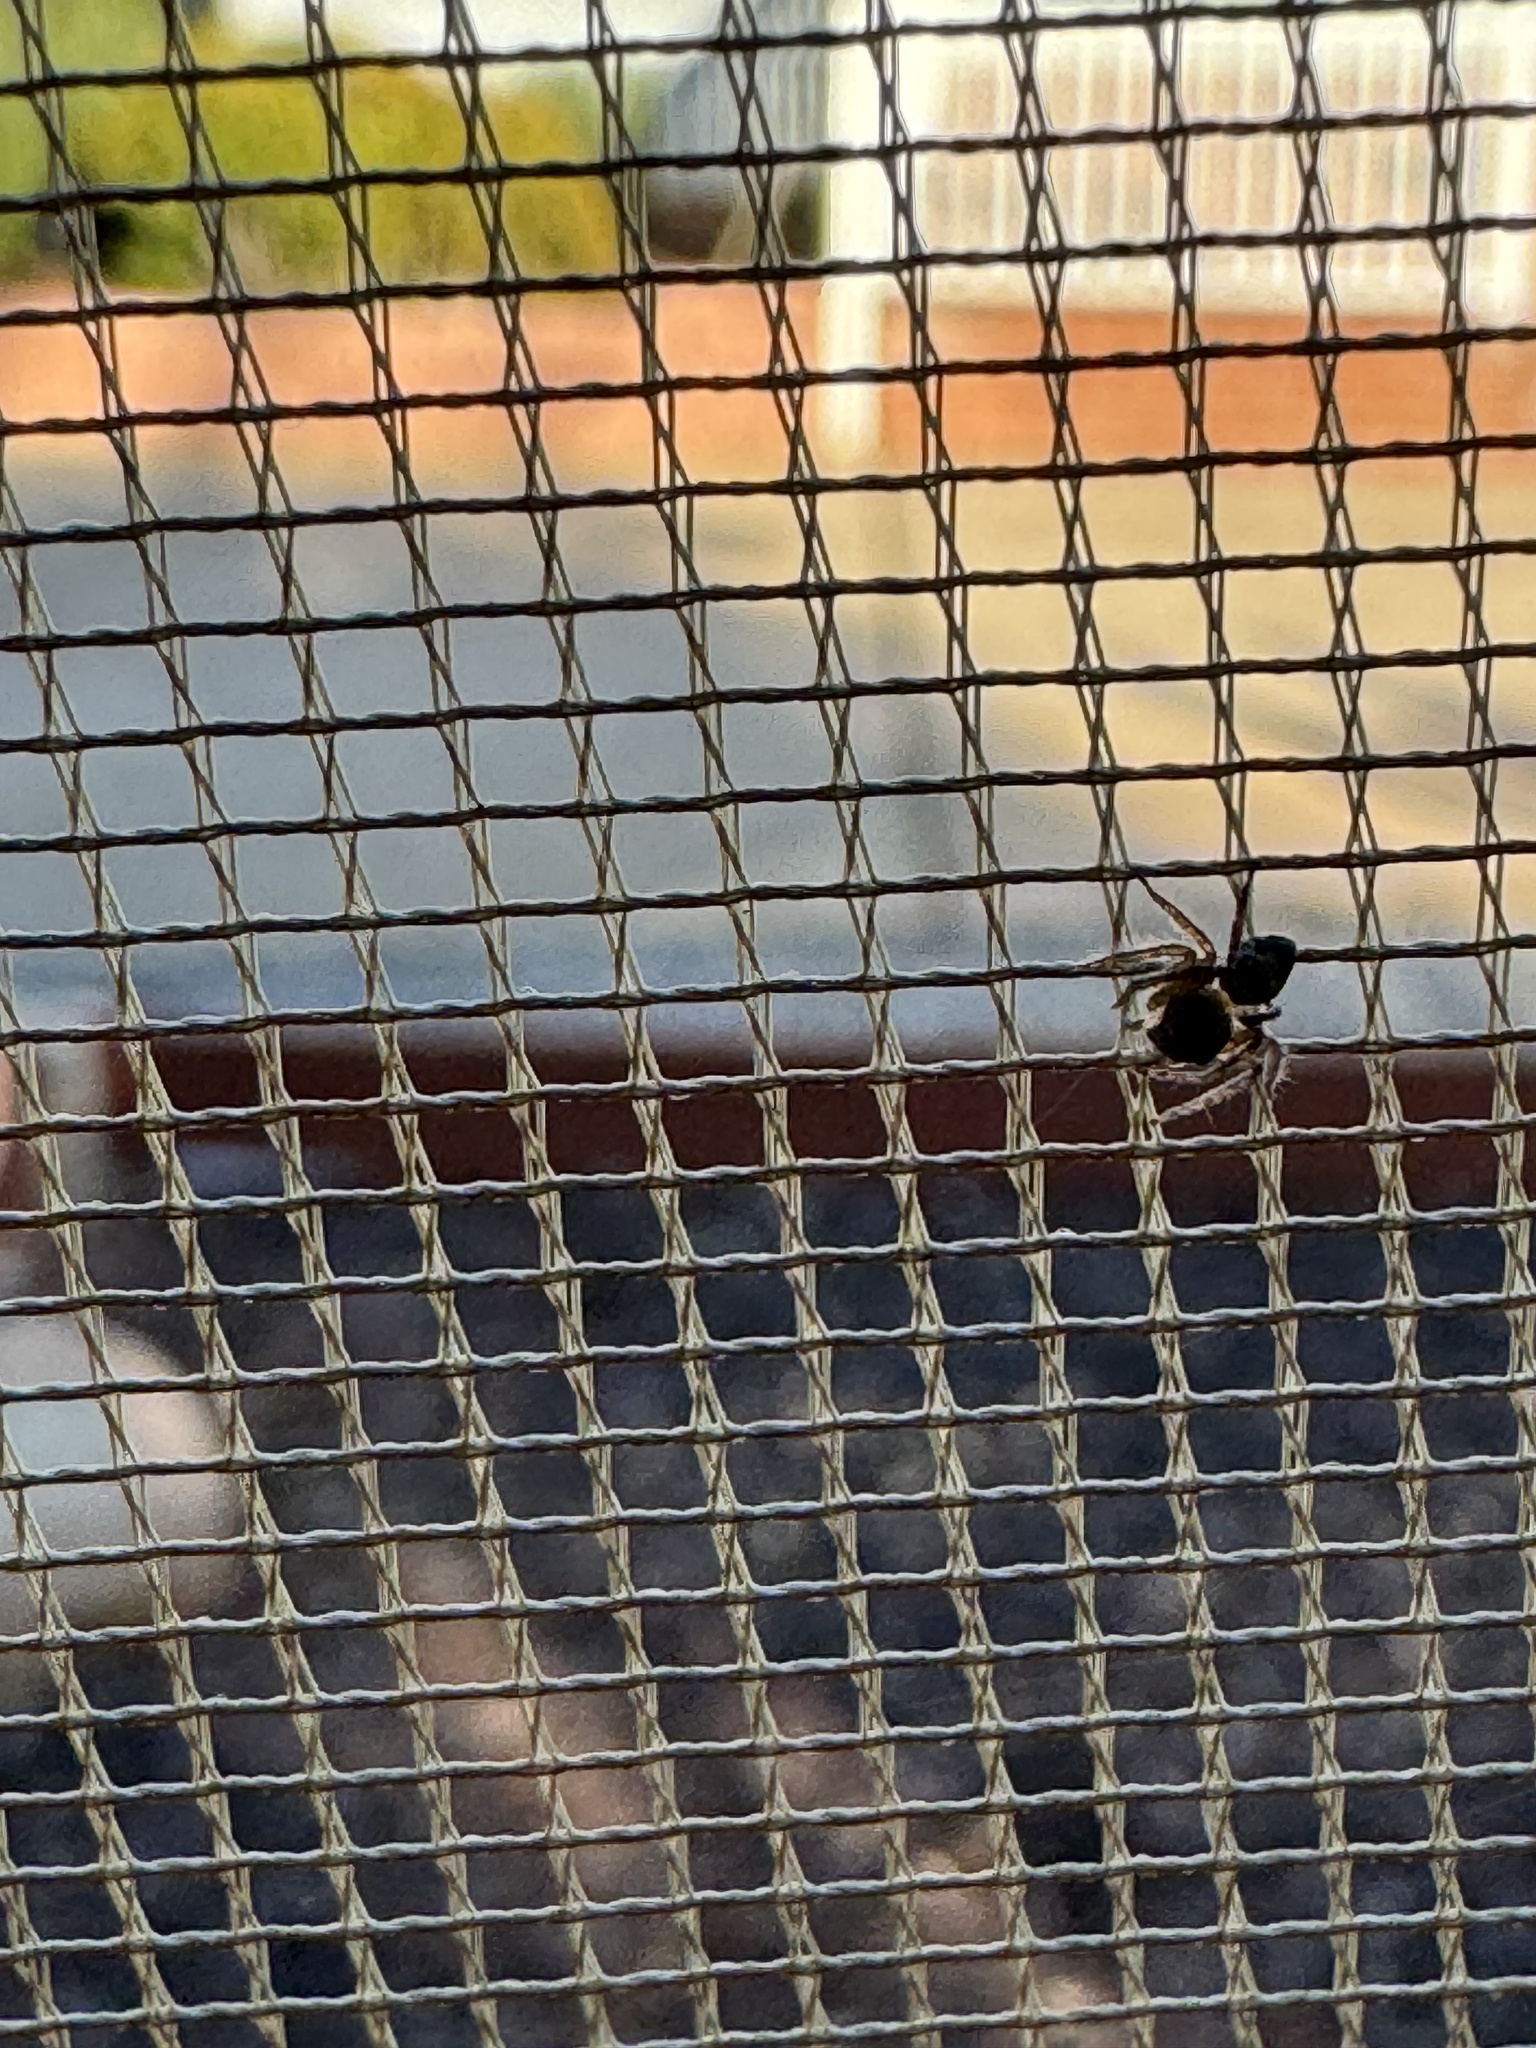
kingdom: Animalia
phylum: Arthropoda
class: Arachnida
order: Araneae
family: Oxyopidae
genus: Hamataliwa
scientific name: Hamataliwa grisea
